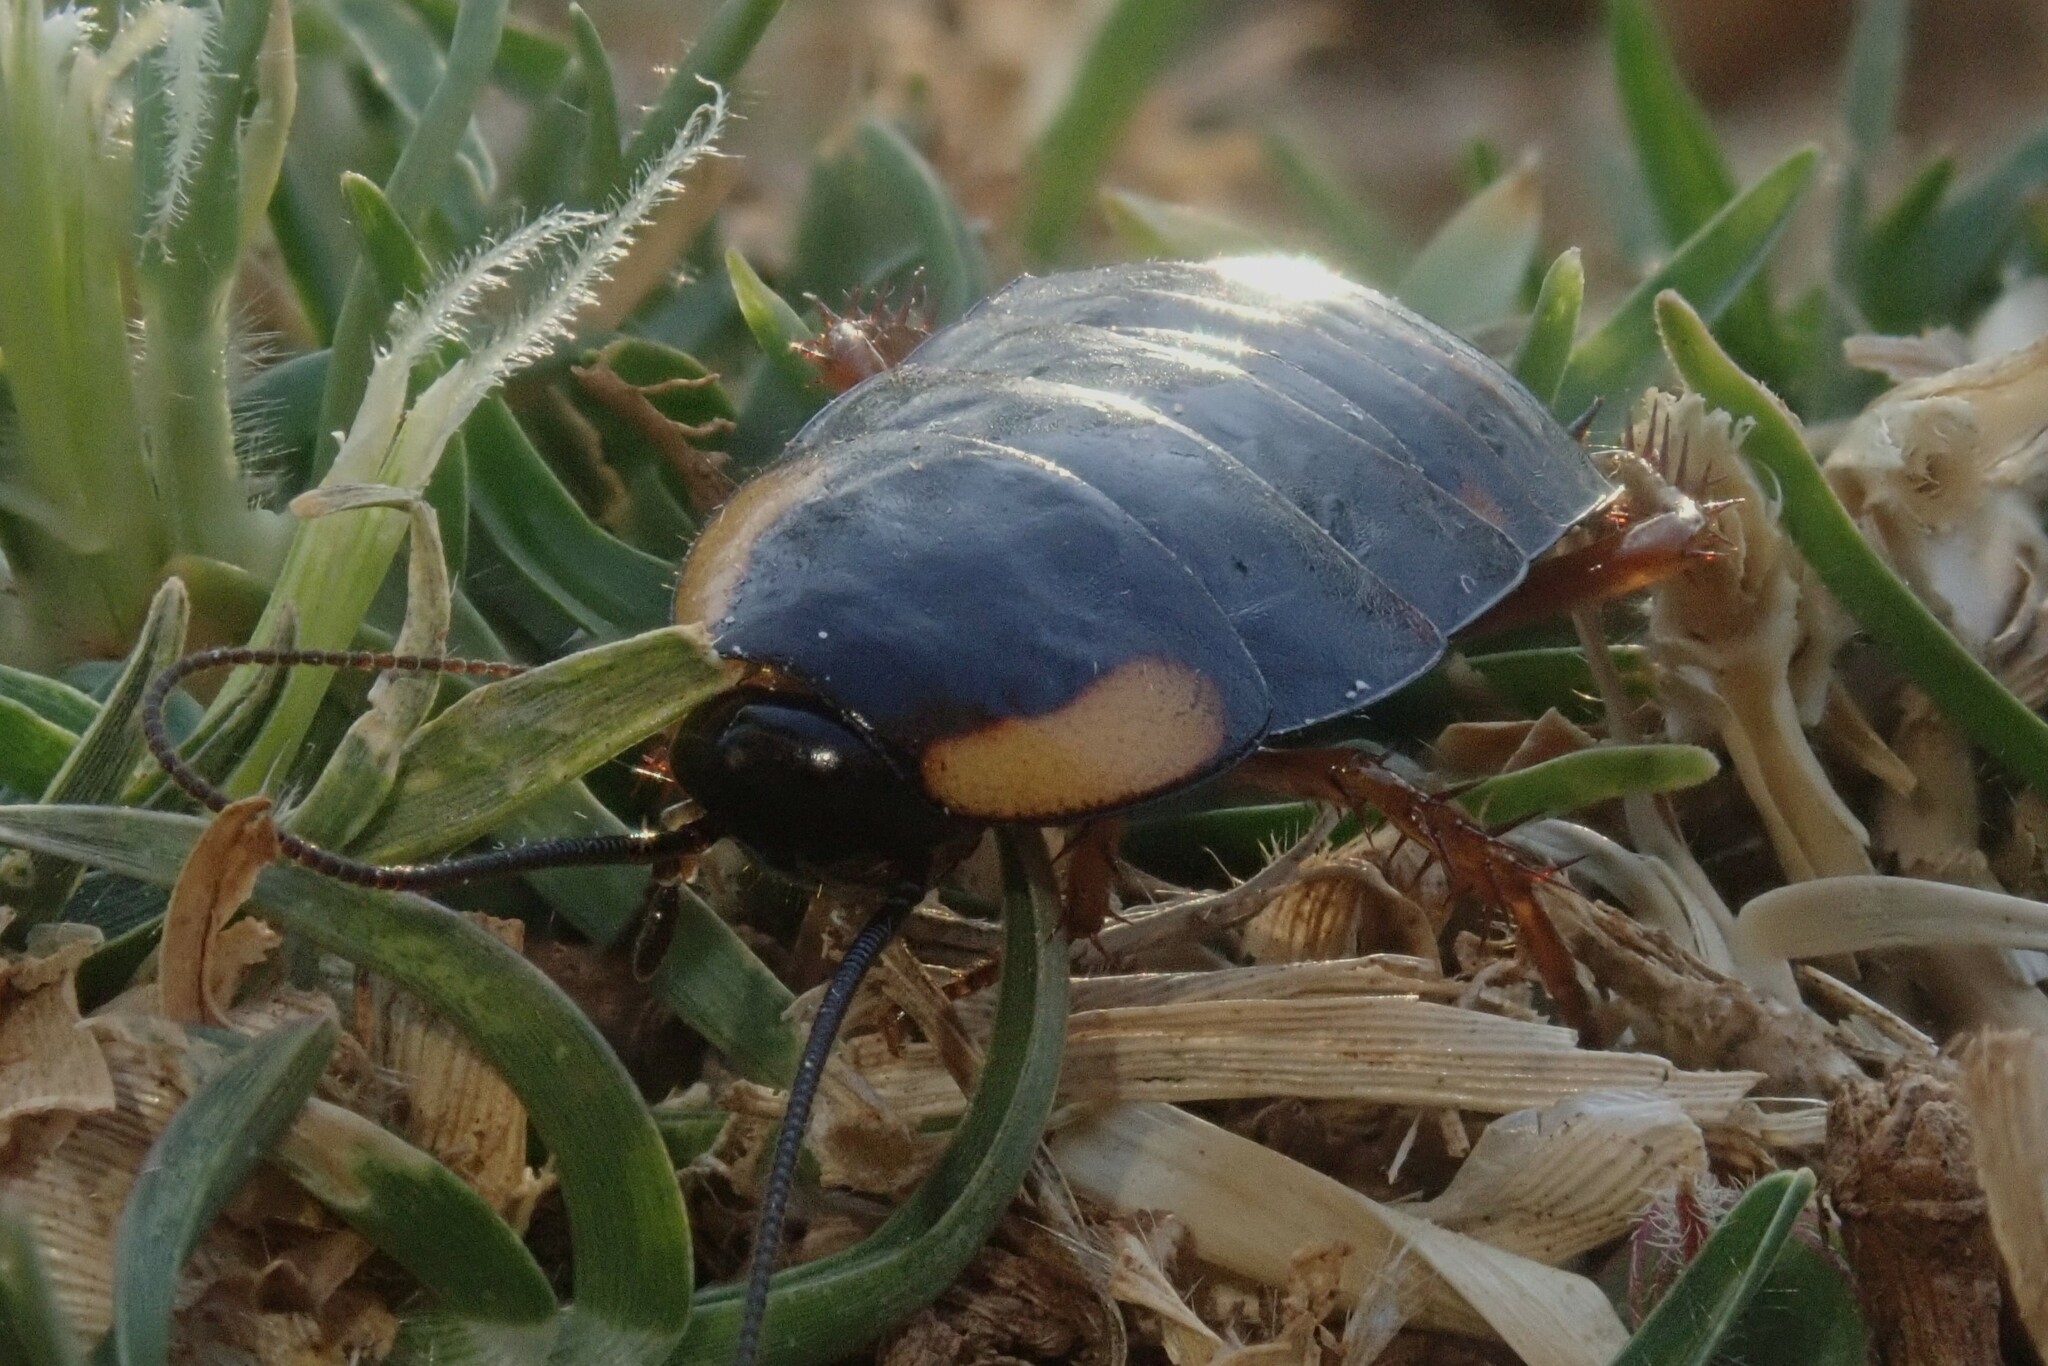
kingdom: Animalia
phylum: Arthropoda
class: Insecta
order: Blattodea
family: Blattidae
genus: Pseudoderopeltis
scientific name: Pseudoderopeltis albilatera
